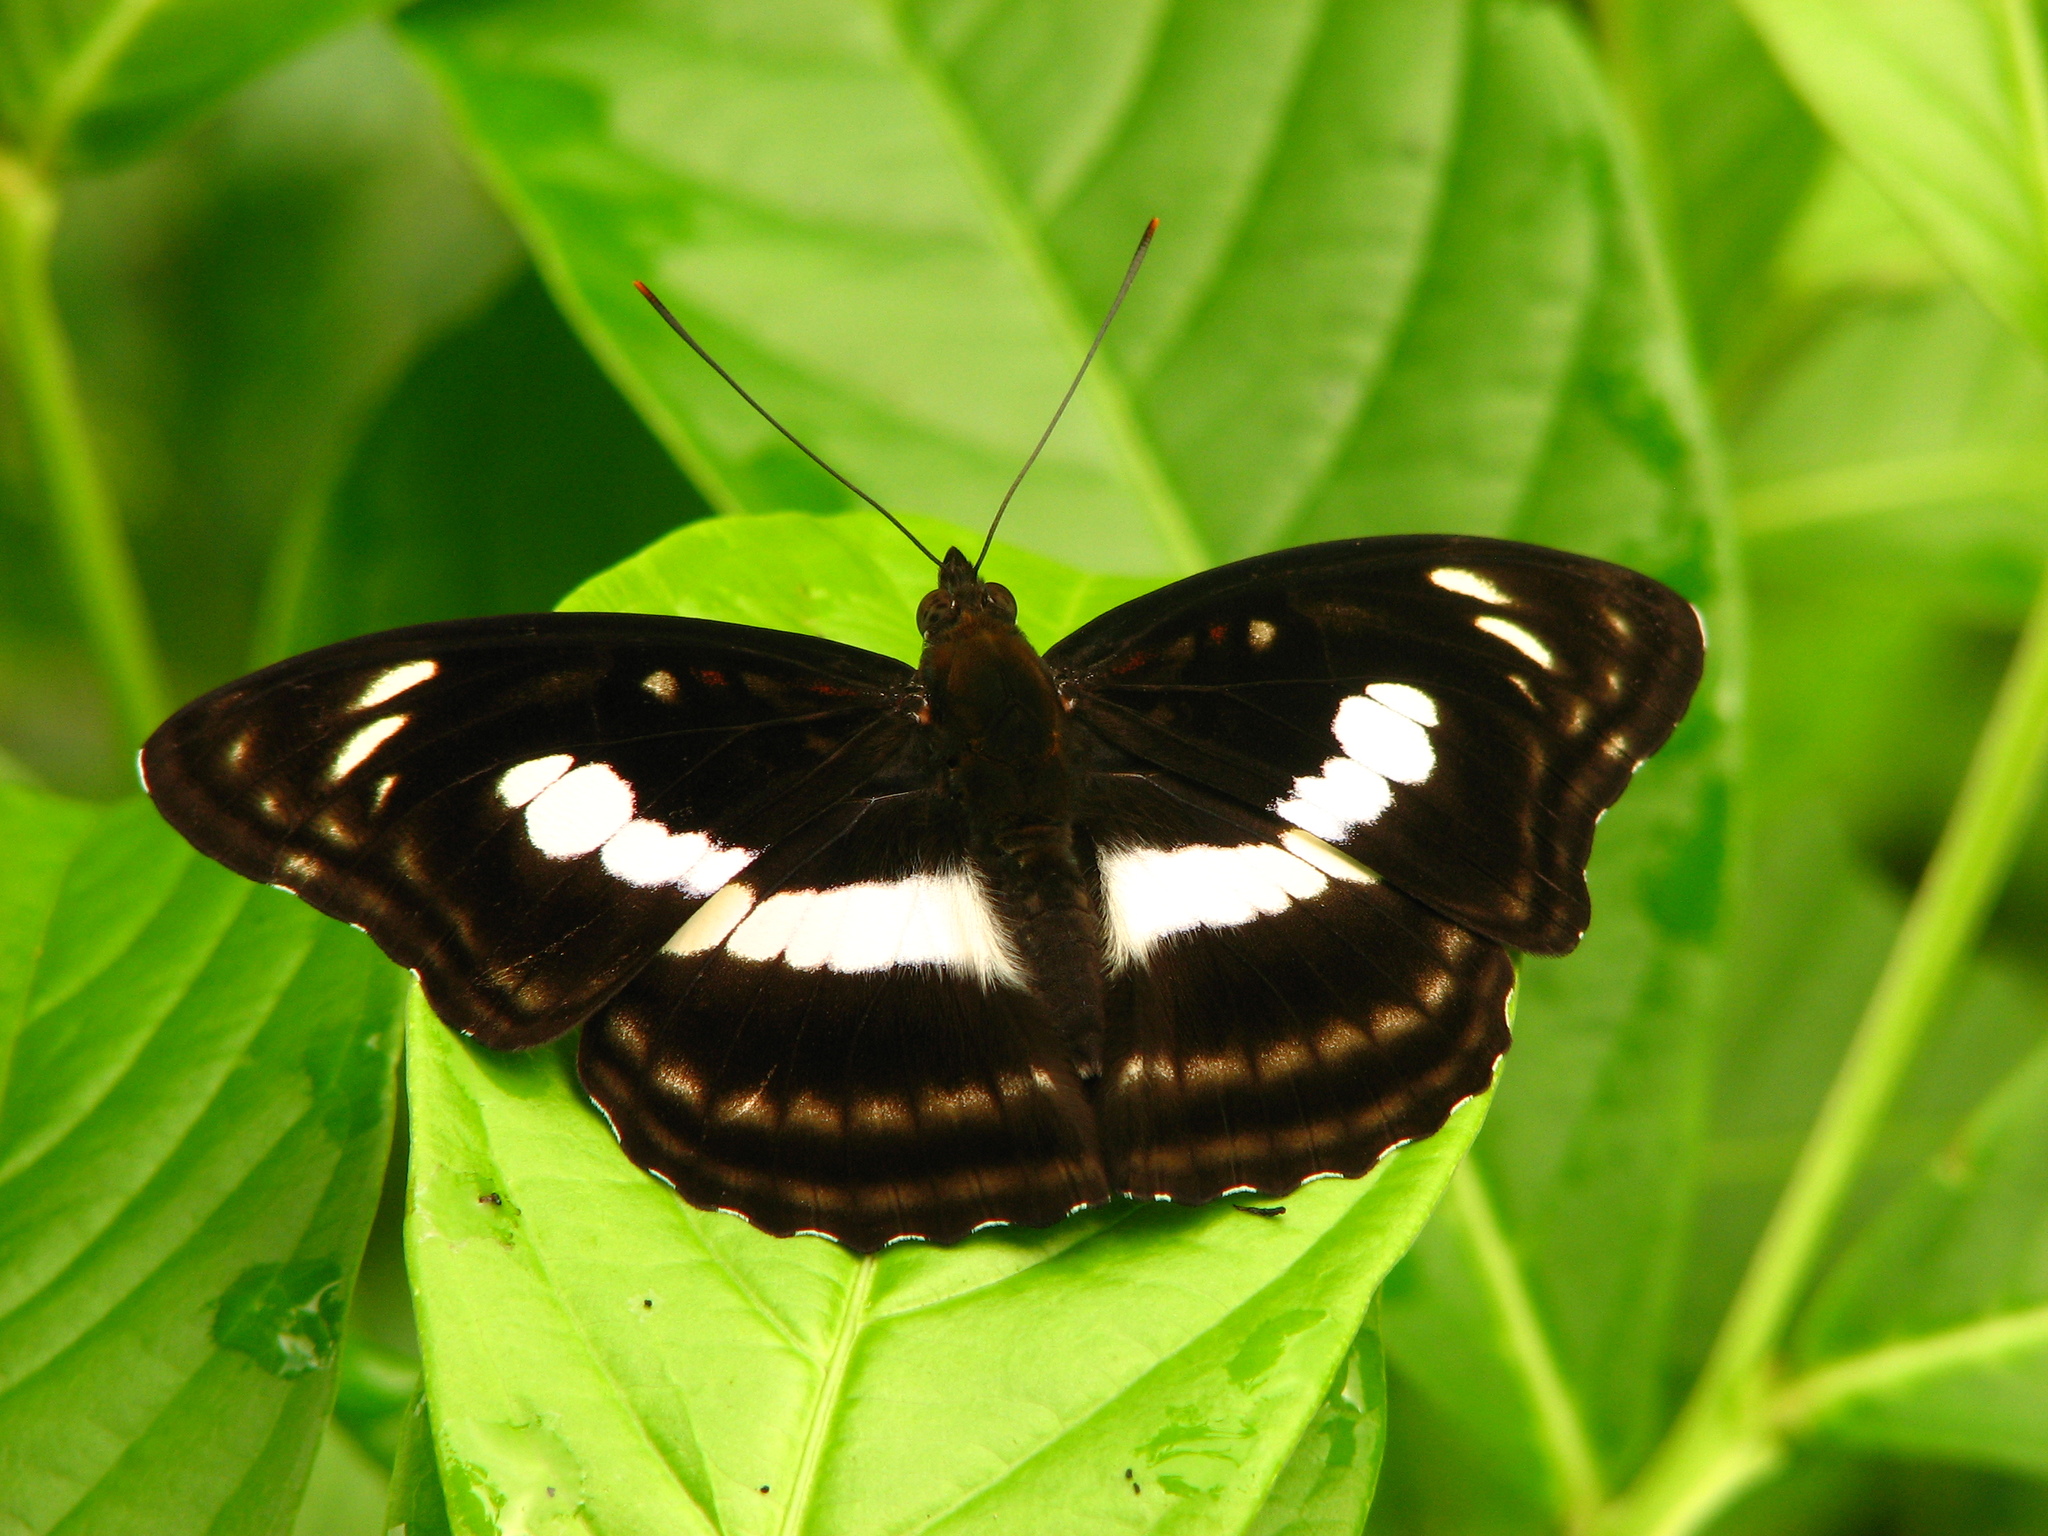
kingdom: Animalia
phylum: Arthropoda
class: Insecta
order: Lepidoptera
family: Nymphalidae
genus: Parathyma
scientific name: Parathyma selenophora
